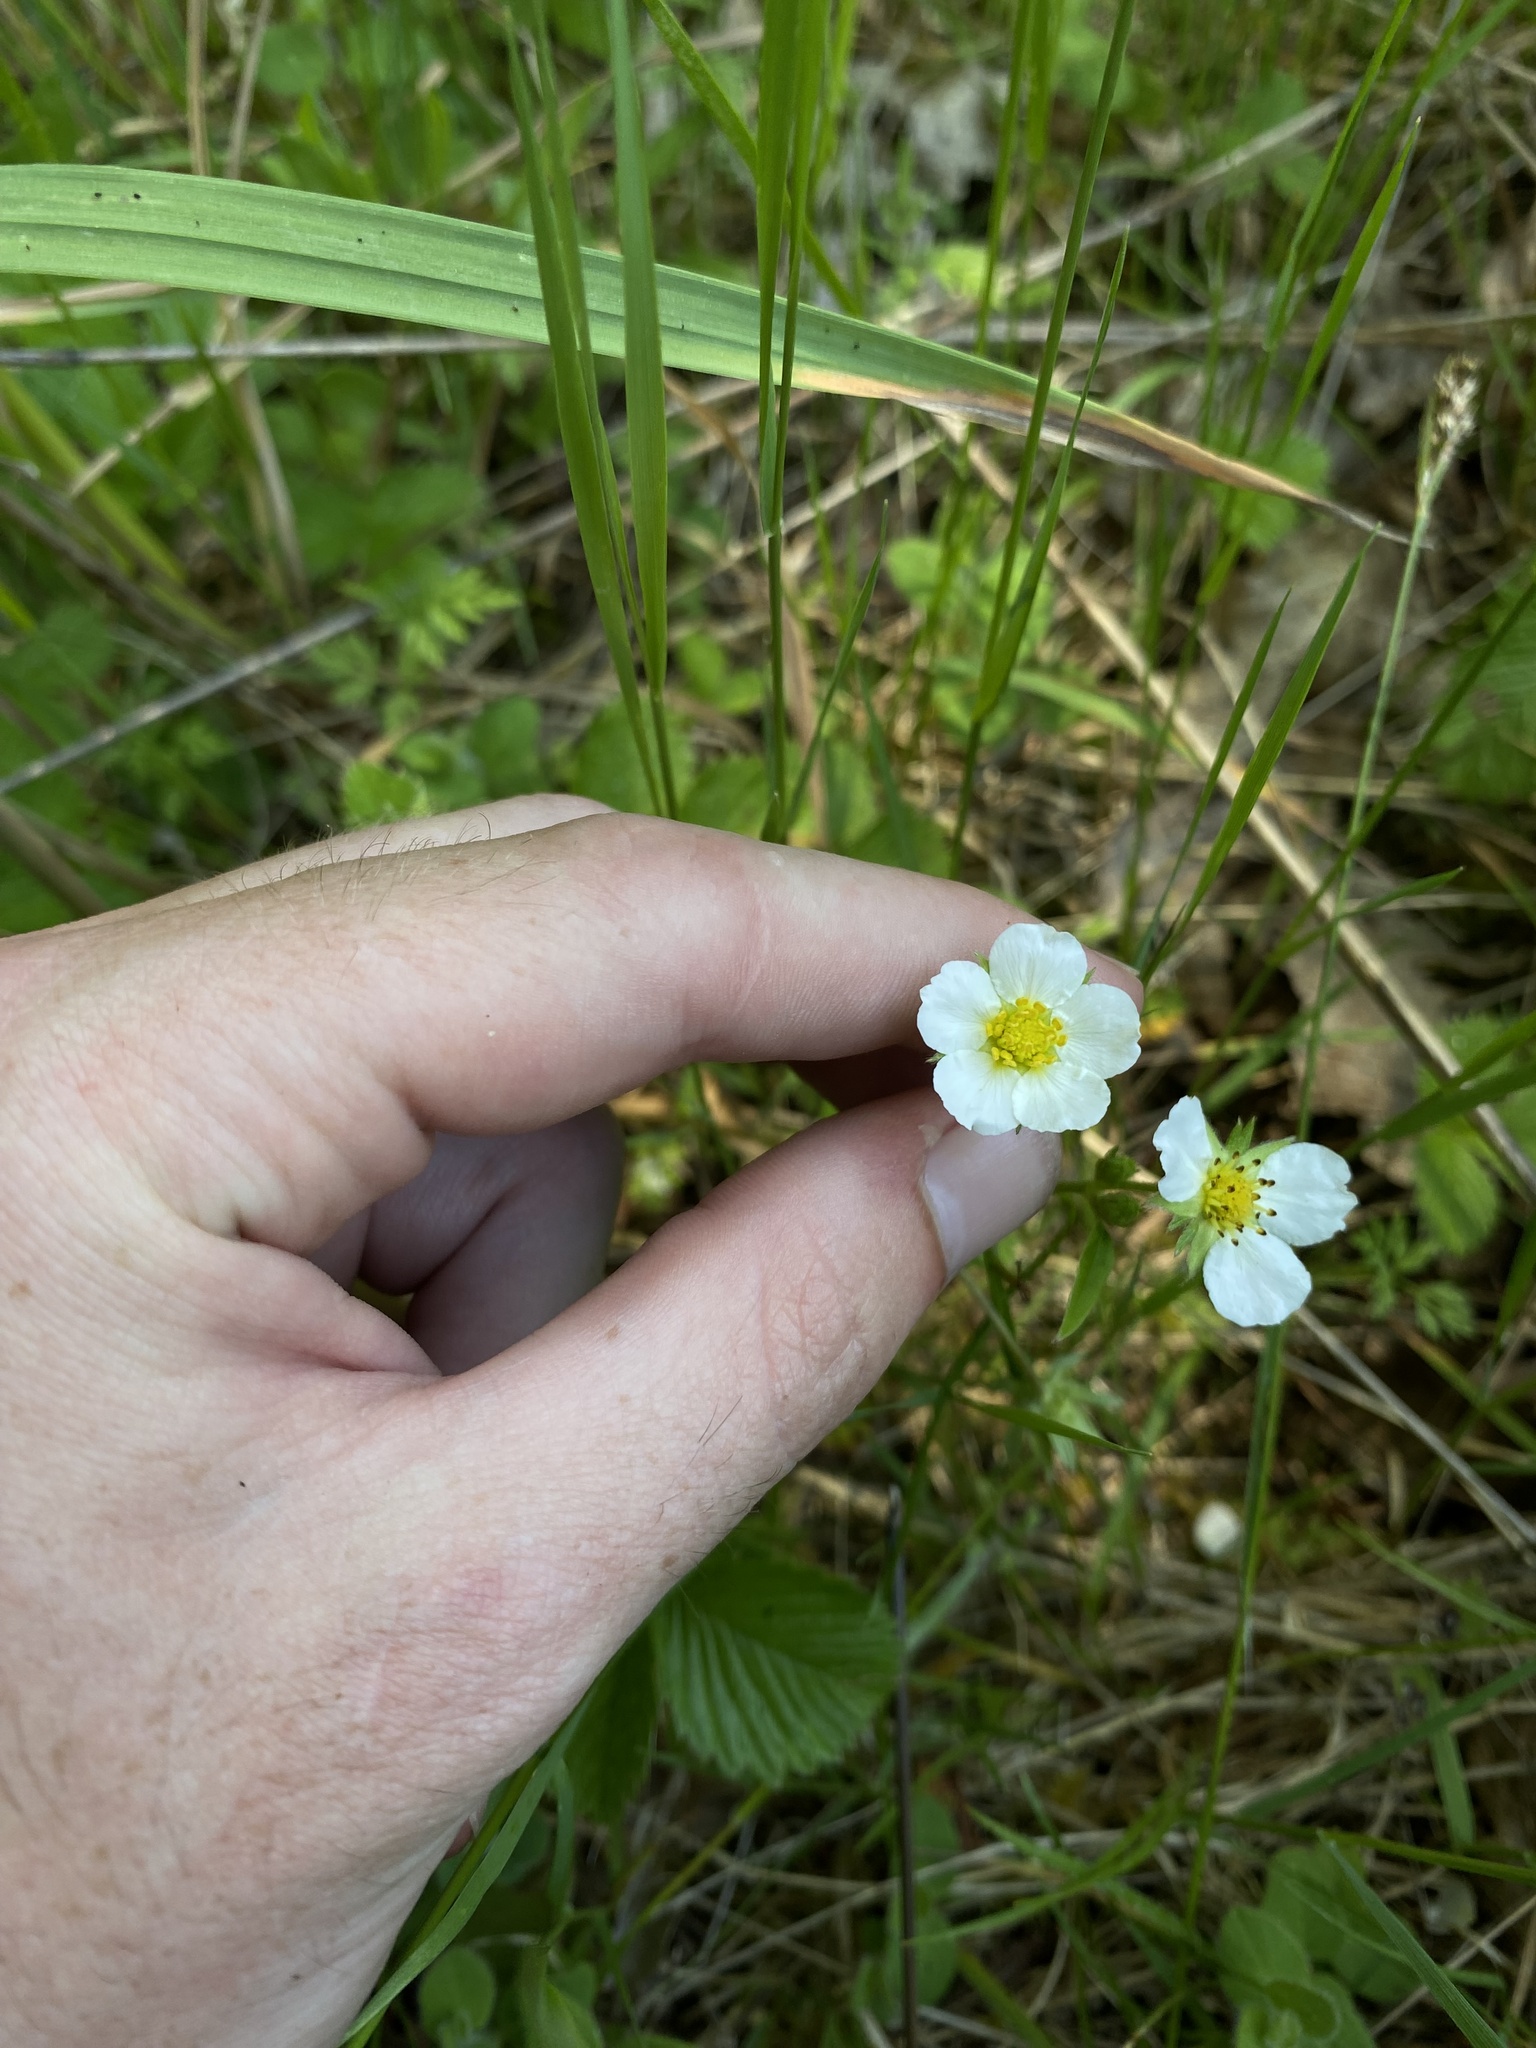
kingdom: Plantae
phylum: Tracheophyta
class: Magnoliopsida
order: Rosales
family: Rosaceae
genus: Fragaria
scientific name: Fragaria vesca
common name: Wild strawberry
